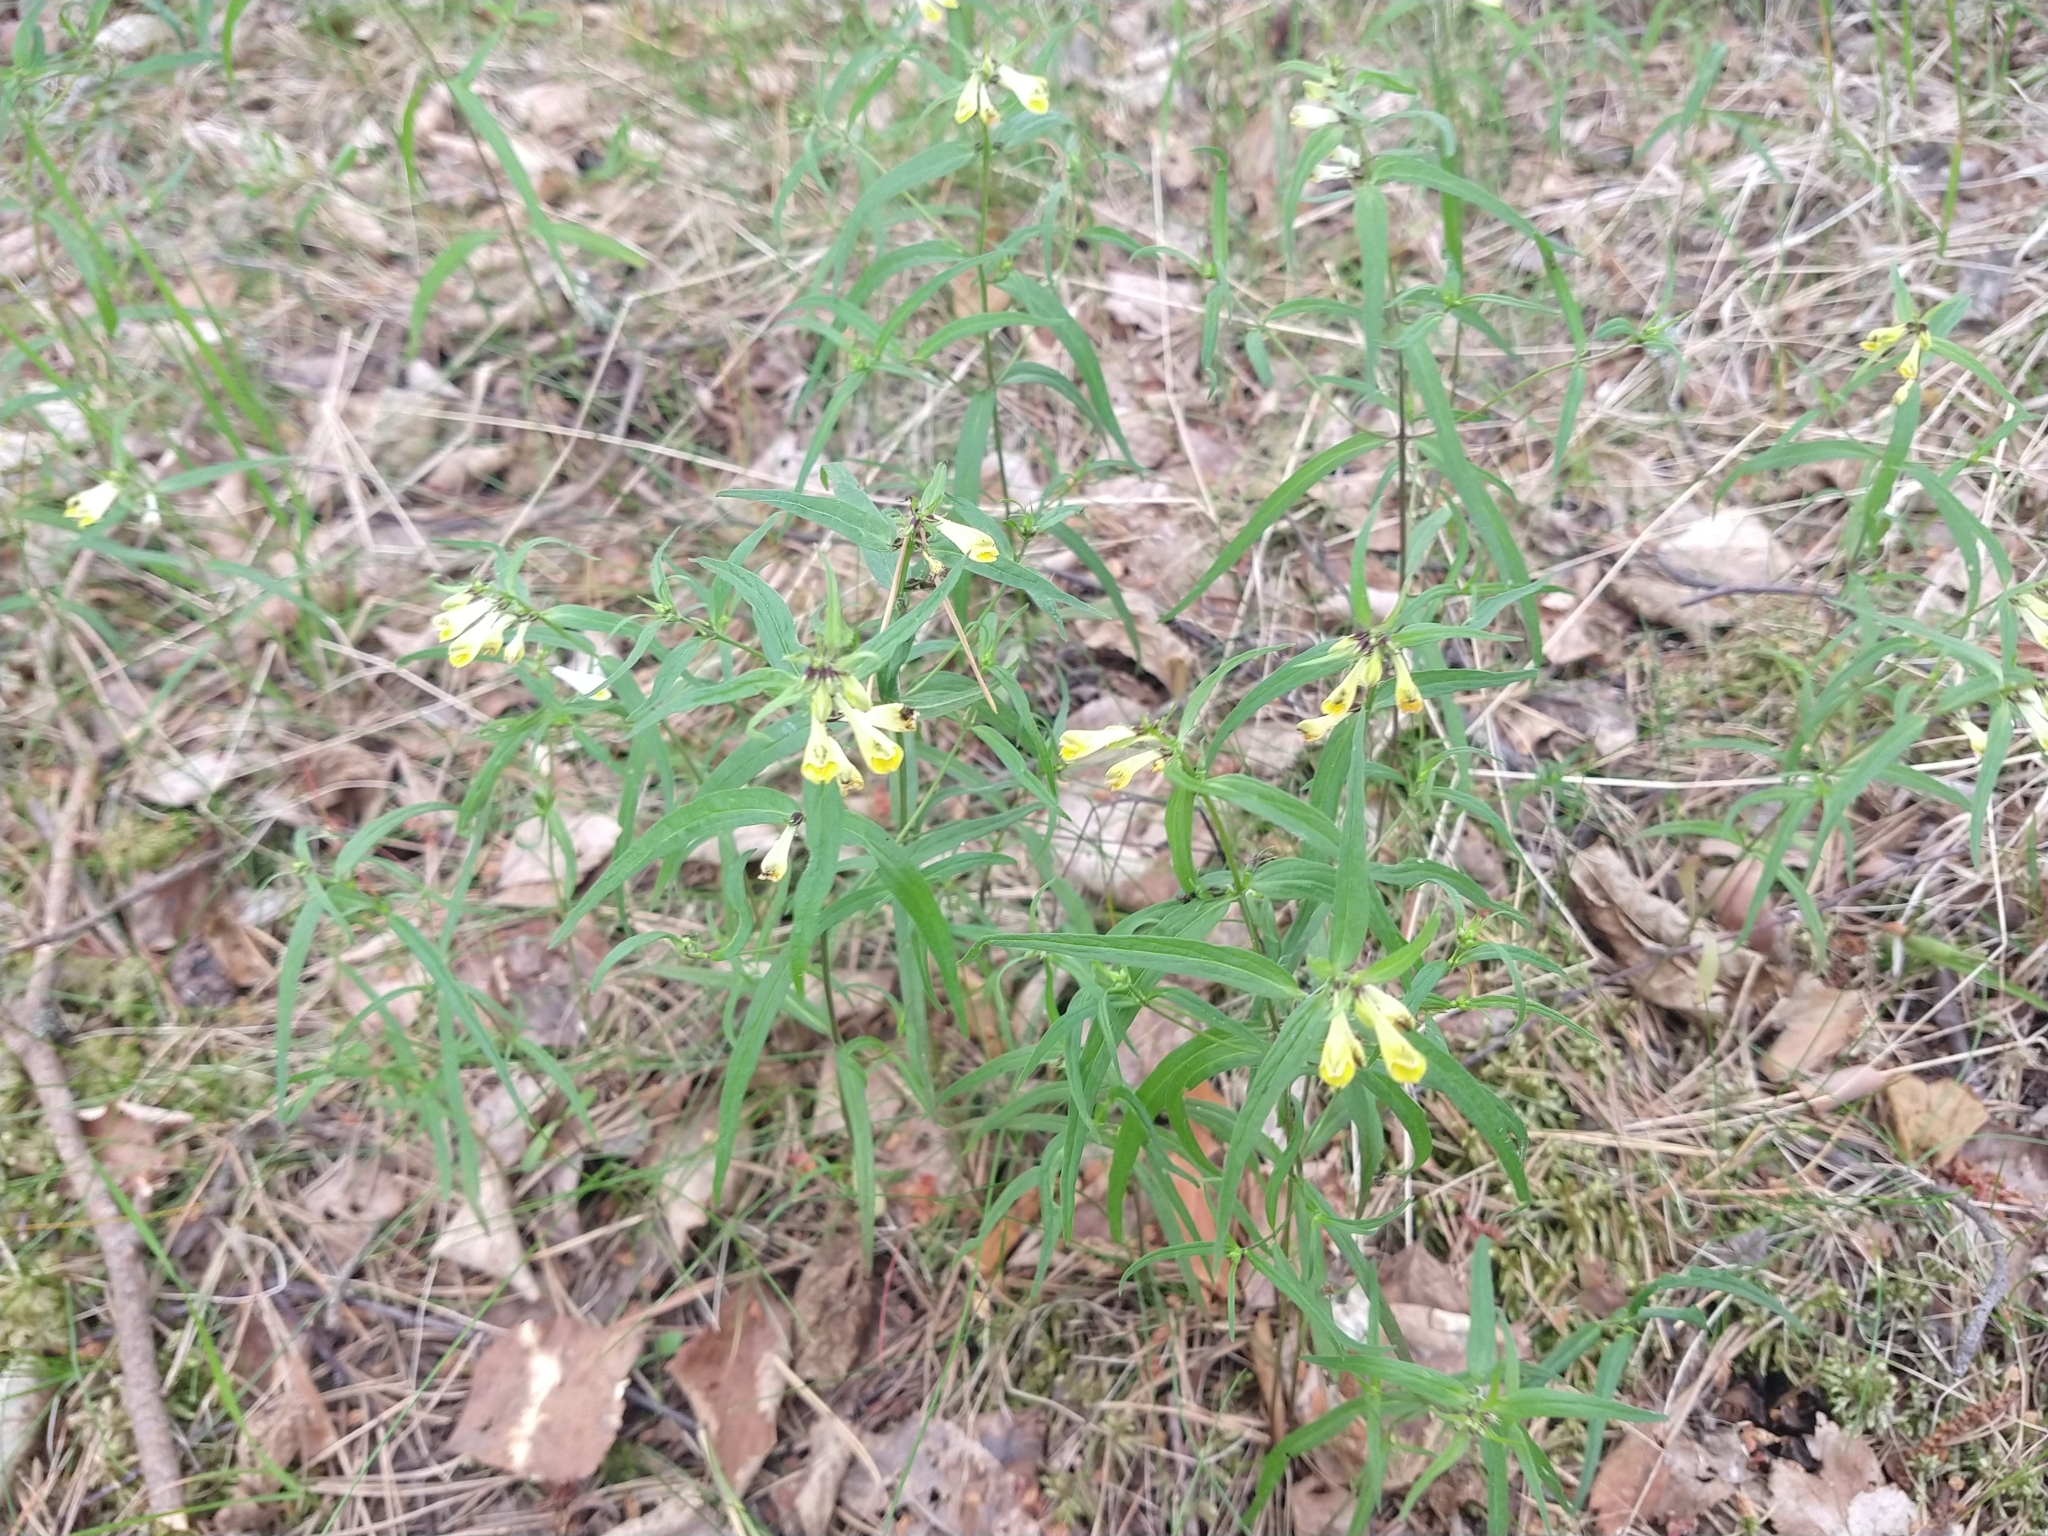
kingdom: Plantae
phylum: Tracheophyta
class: Magnoliopsida
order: Lamiales
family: Orobanchaceae
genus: Melampyrum
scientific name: Melampyrum pratense
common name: Common cow-wheat
